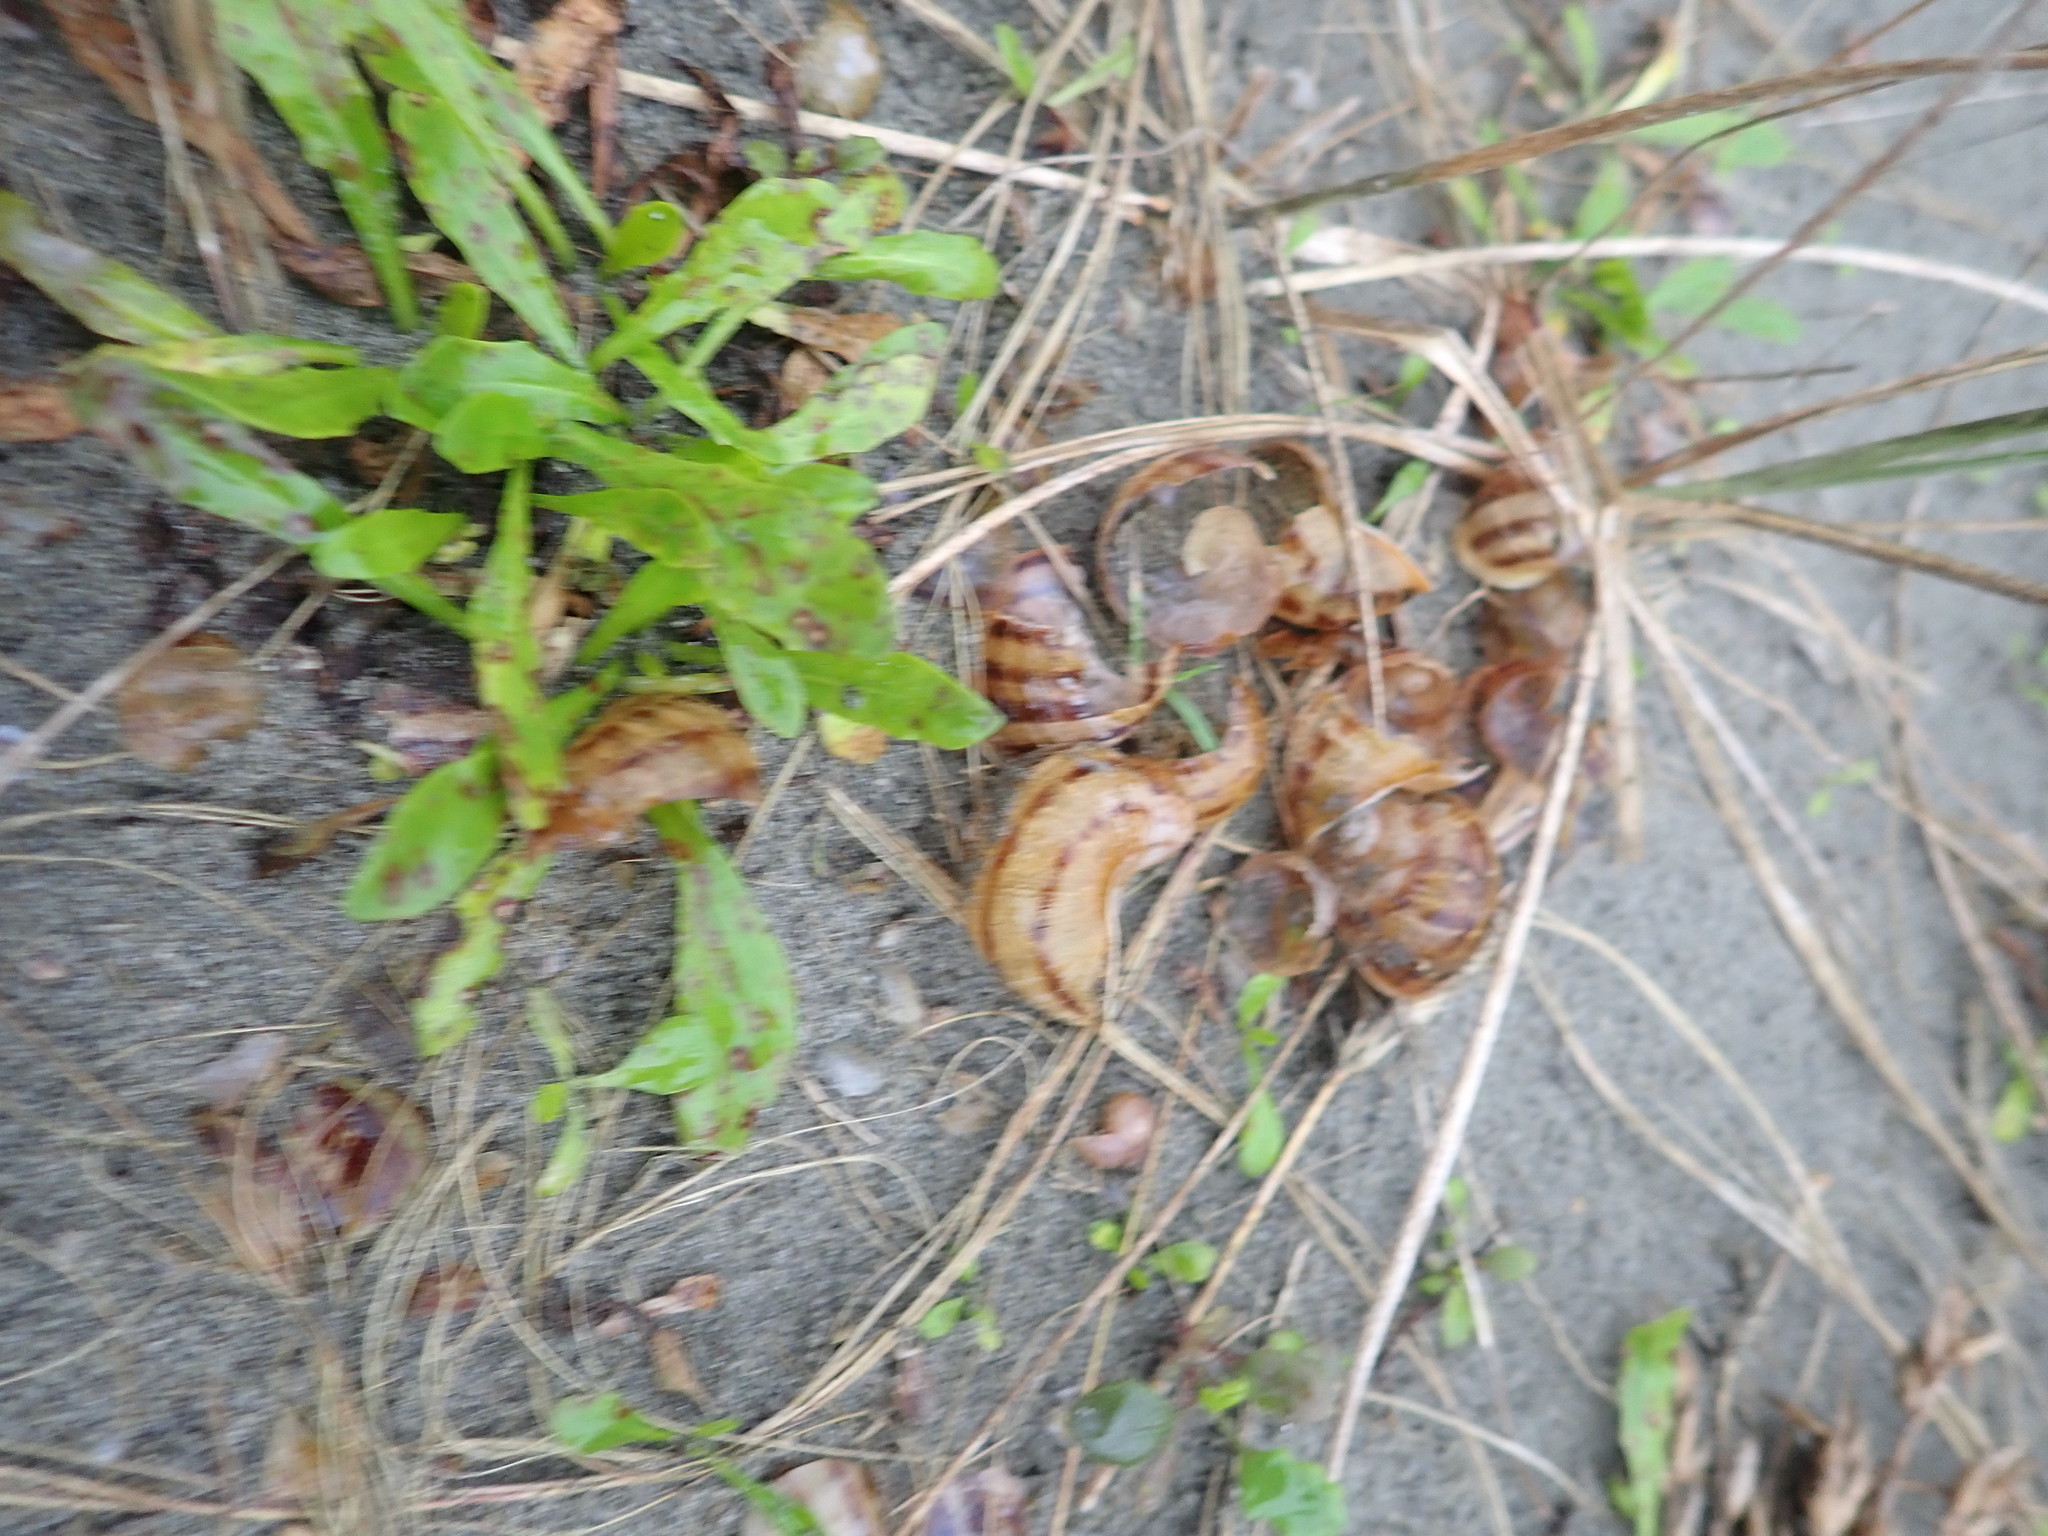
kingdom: Animalia
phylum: Mollusca
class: Gastropoda
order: Stylommatophora
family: Helicidae
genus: Cornu
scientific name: Cornu aspersum
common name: Brown garden snail
